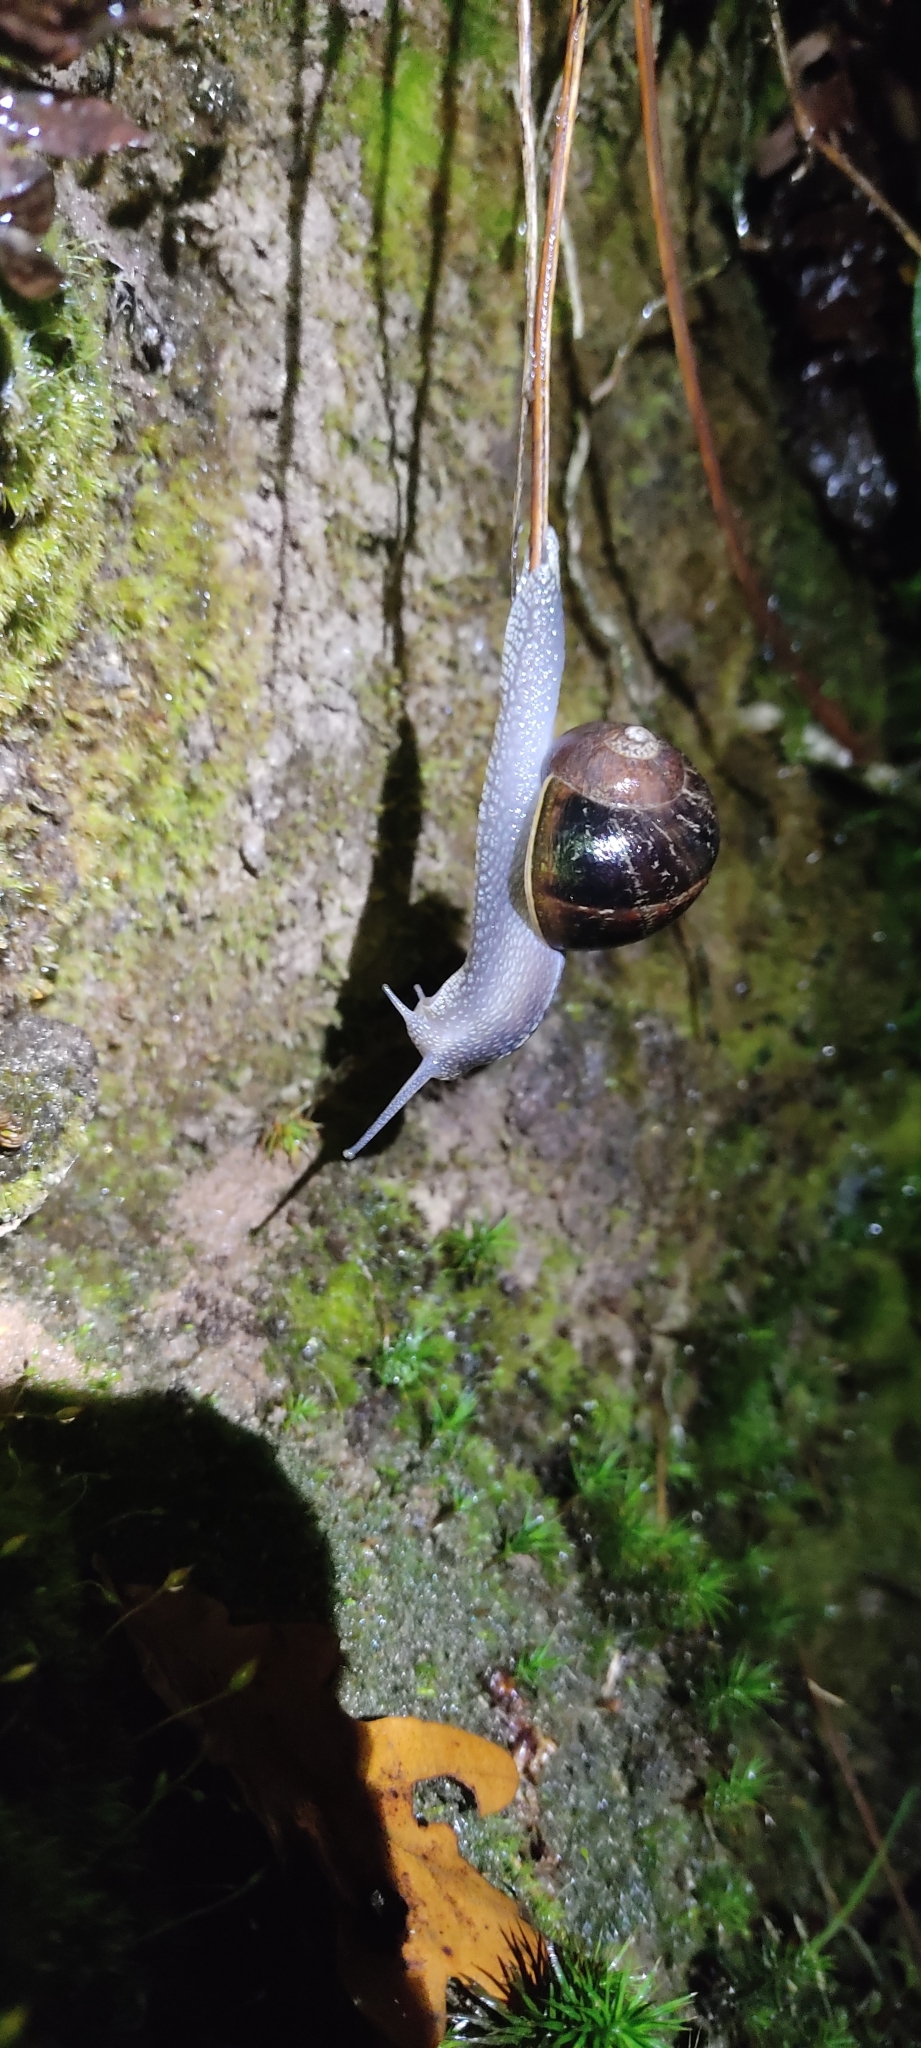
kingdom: Animalia
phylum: Mollusca
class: Gastropoda
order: Stylommatophora
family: Helicidae
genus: Cornu
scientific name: Cornu aspersum
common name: Brown garden snail
